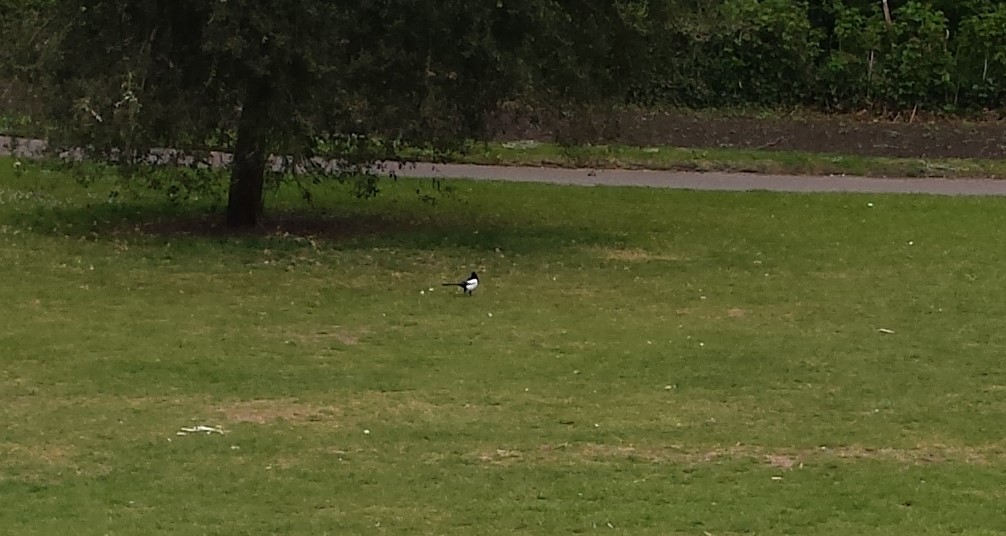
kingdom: Animalia
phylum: Chordata
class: Aves
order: Passeriformes
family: Corvidae
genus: Pica
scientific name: Pica pica
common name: Eurasian magpie
